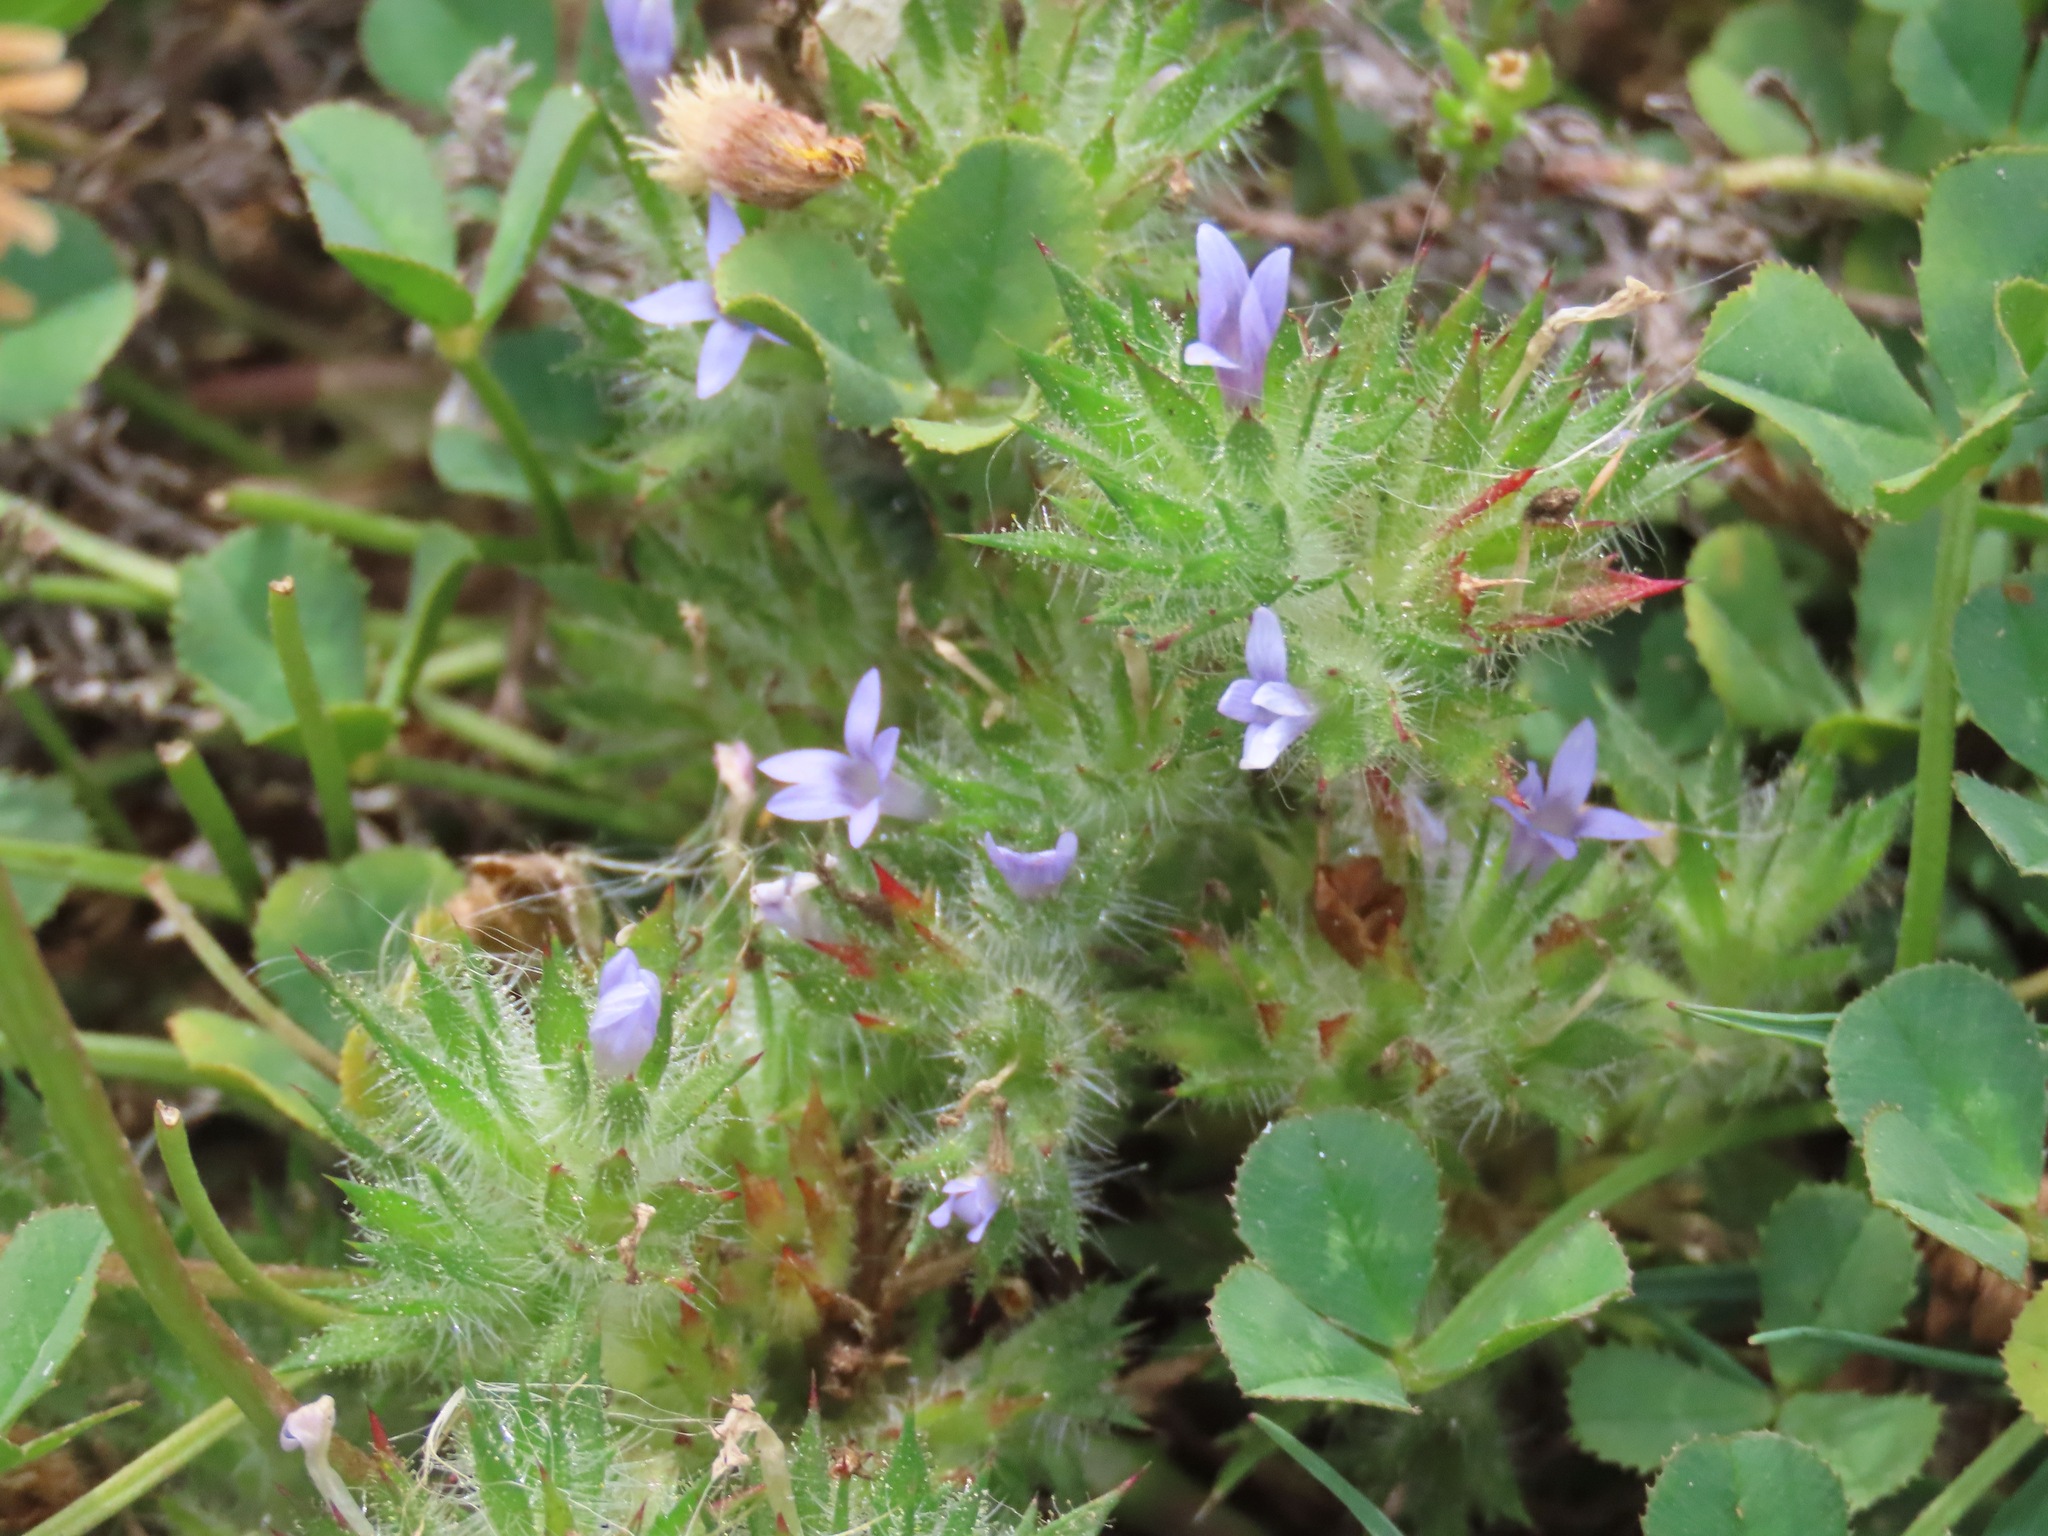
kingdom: Plantae
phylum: Tracheophyta
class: Magnoliopsida
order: Ericales
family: Polemoniaceae
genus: Navarretia
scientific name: Navarretia squarrosa
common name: Skunkweed
